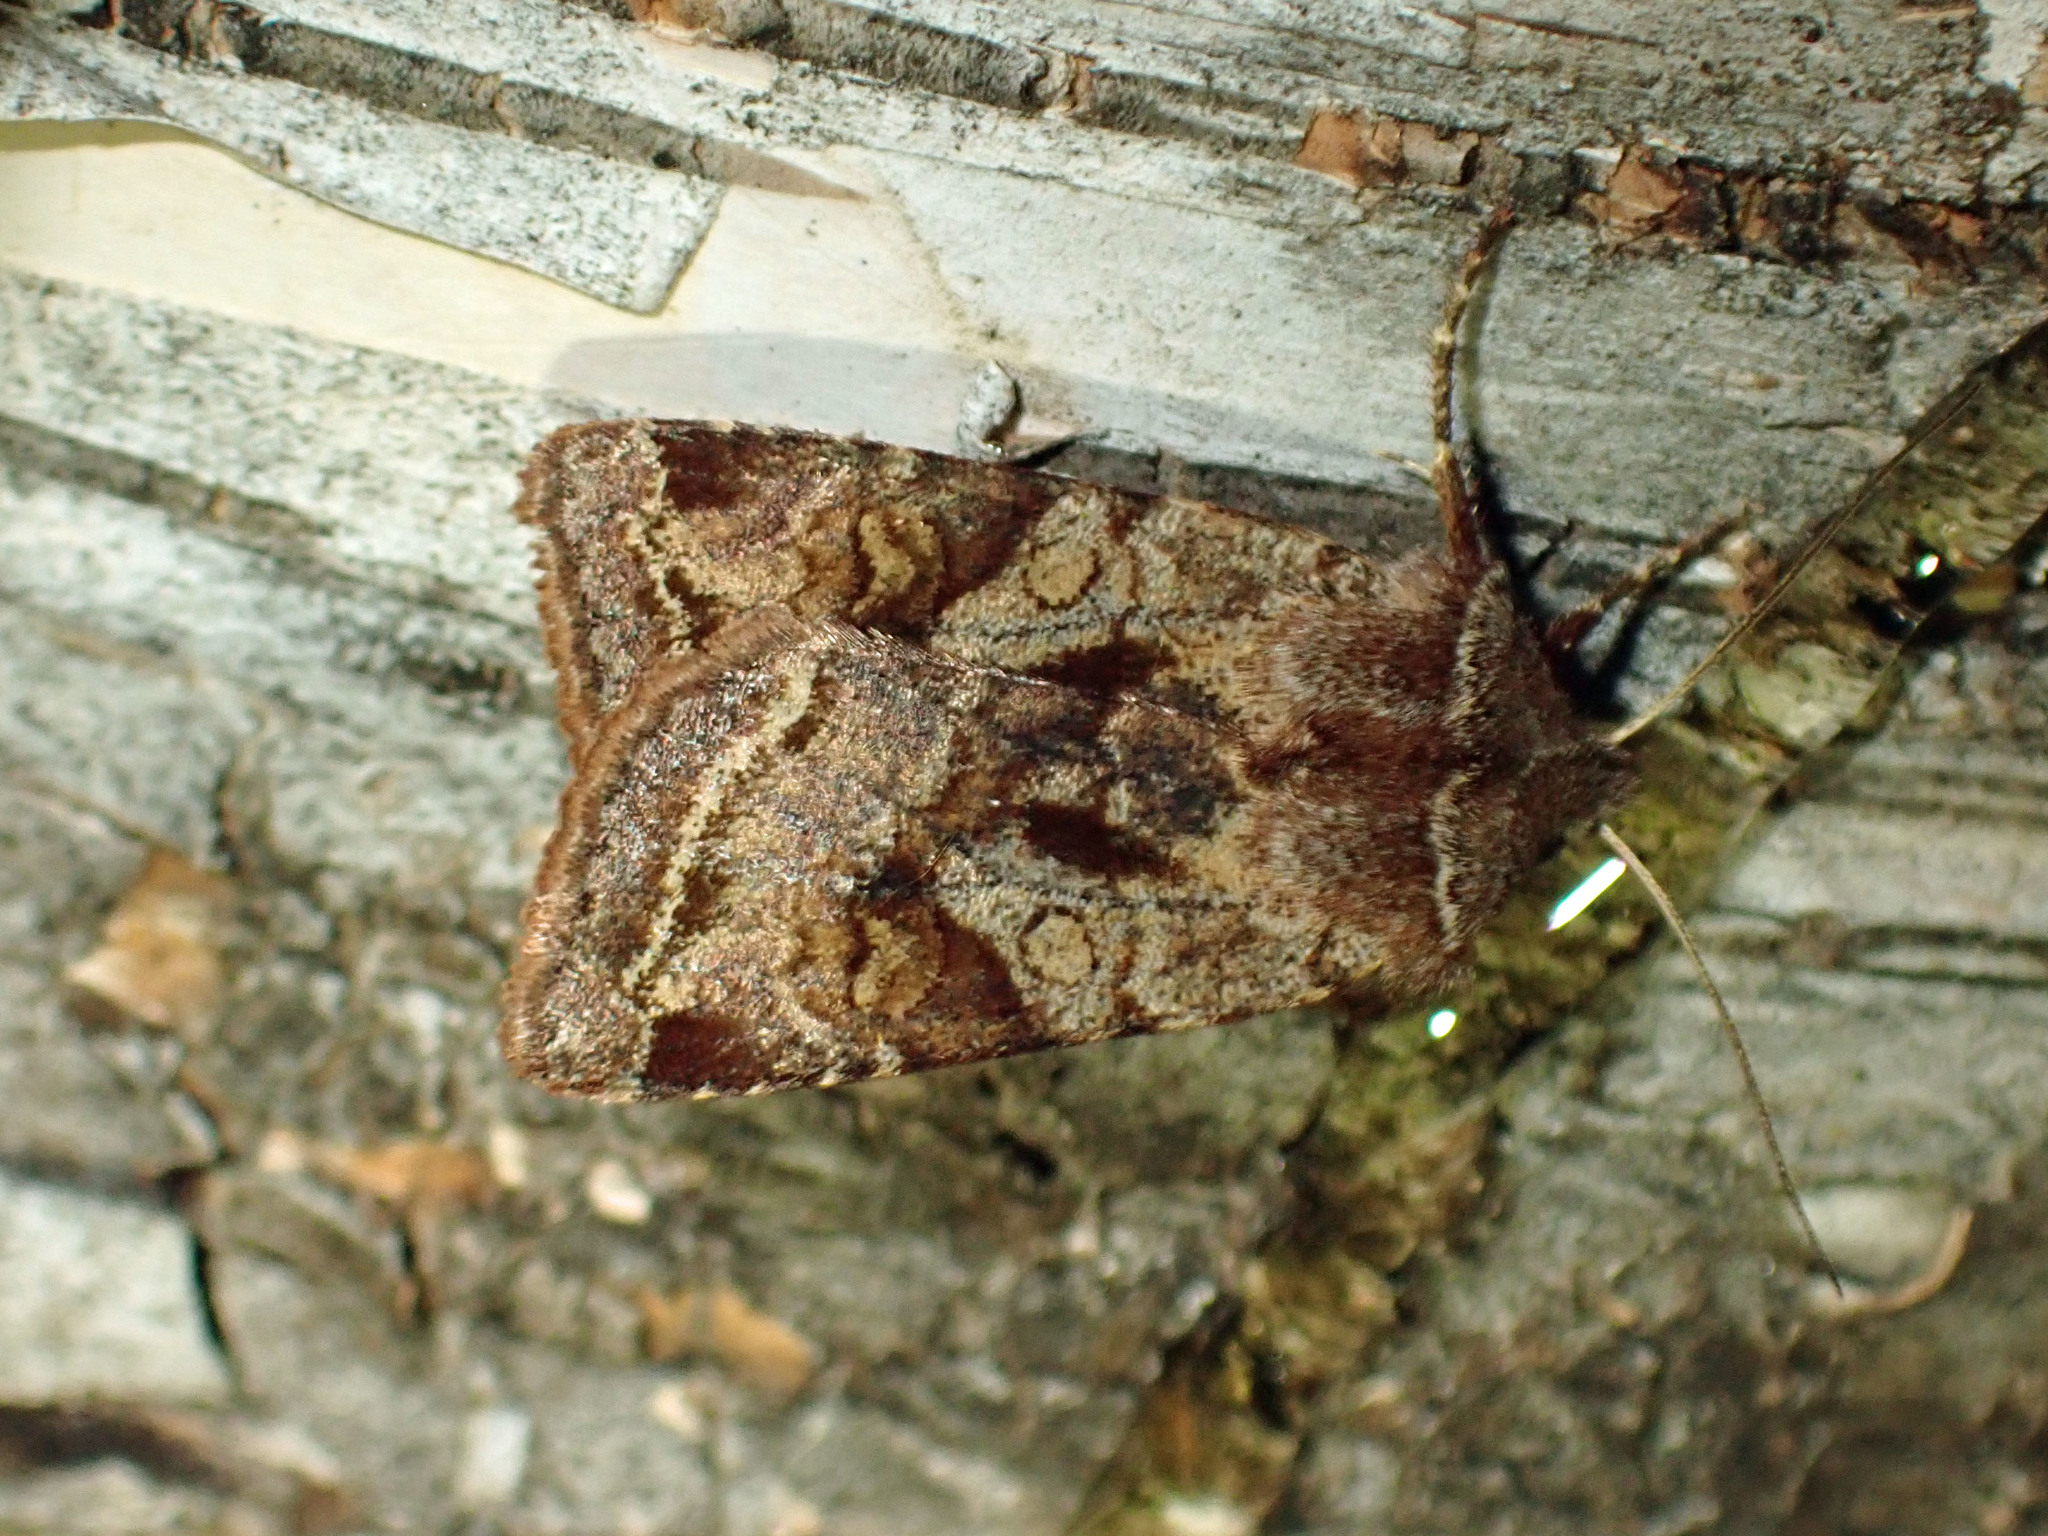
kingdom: Animalia
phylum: Arthropoda
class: Insecta
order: Lepidoptera
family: Noctuidae
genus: Cerastis
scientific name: Cerastis salicarum
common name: Willow dart
